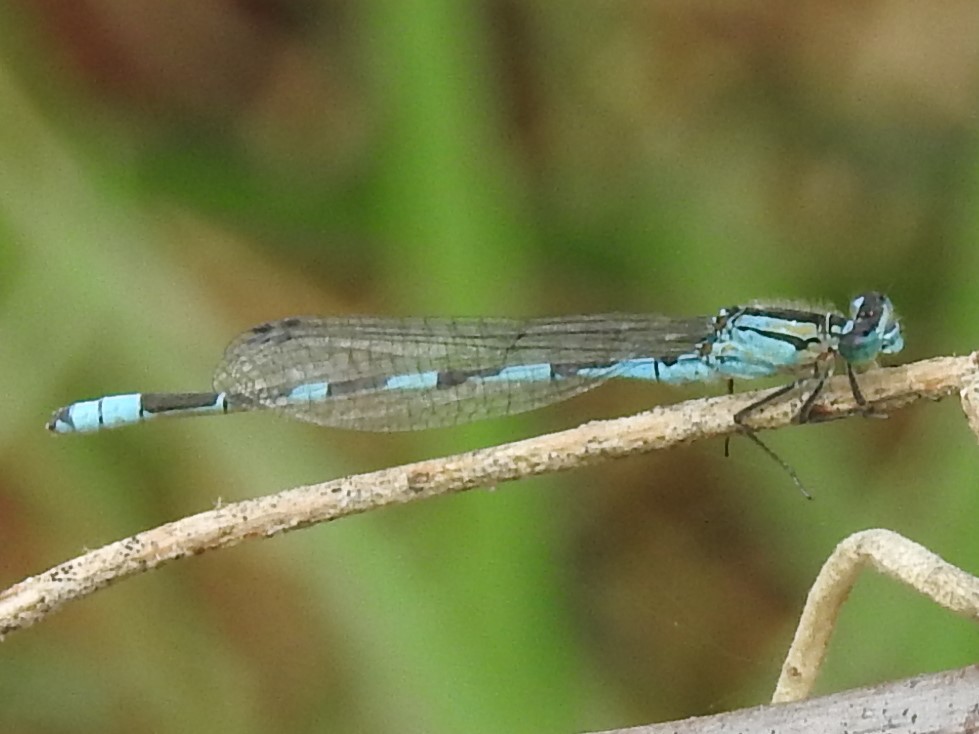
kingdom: Animalia
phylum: Arthropoda
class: Insecta
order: Odonata
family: Coenagrionidae
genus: Enallagma
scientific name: Enallagma carunculatum
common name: Tule bluet
